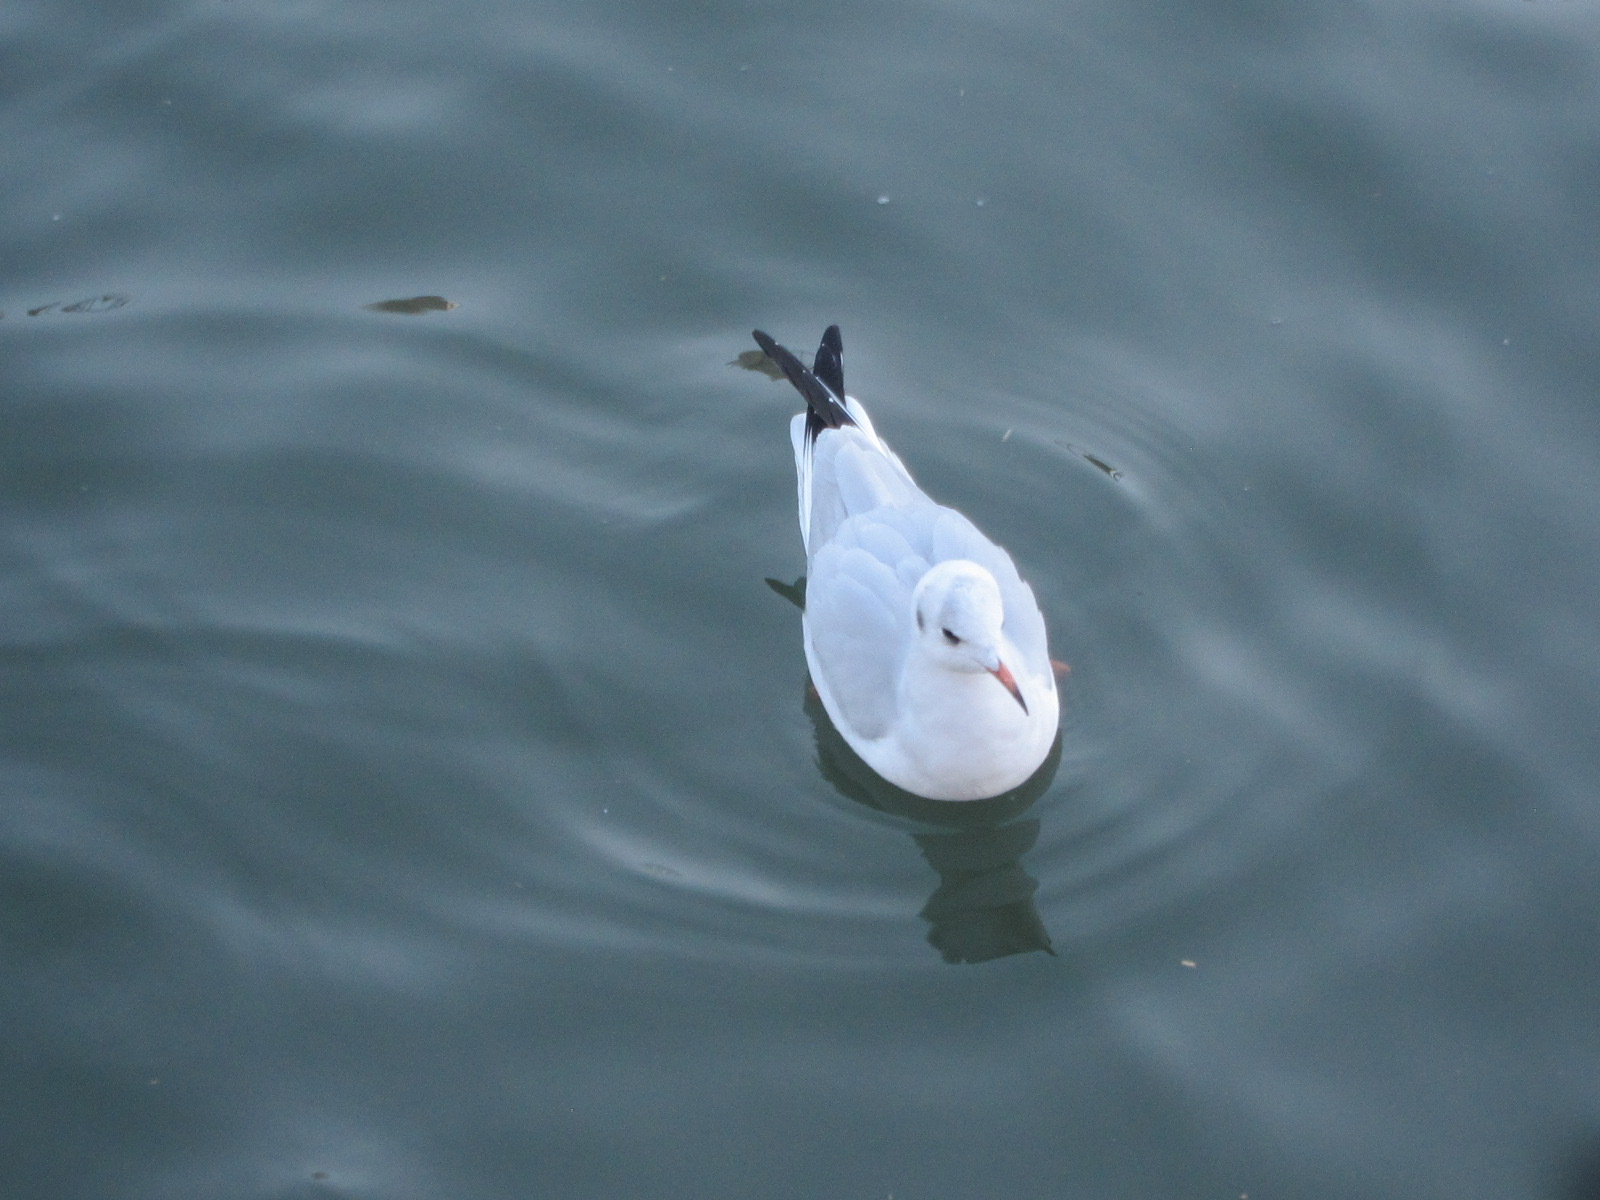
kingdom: Animalia
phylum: Chordata
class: Aves
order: Charadriiformes
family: Laridae
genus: Chroicocephalus
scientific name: Chroicocephalus ridibundus
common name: Black-headed gull
